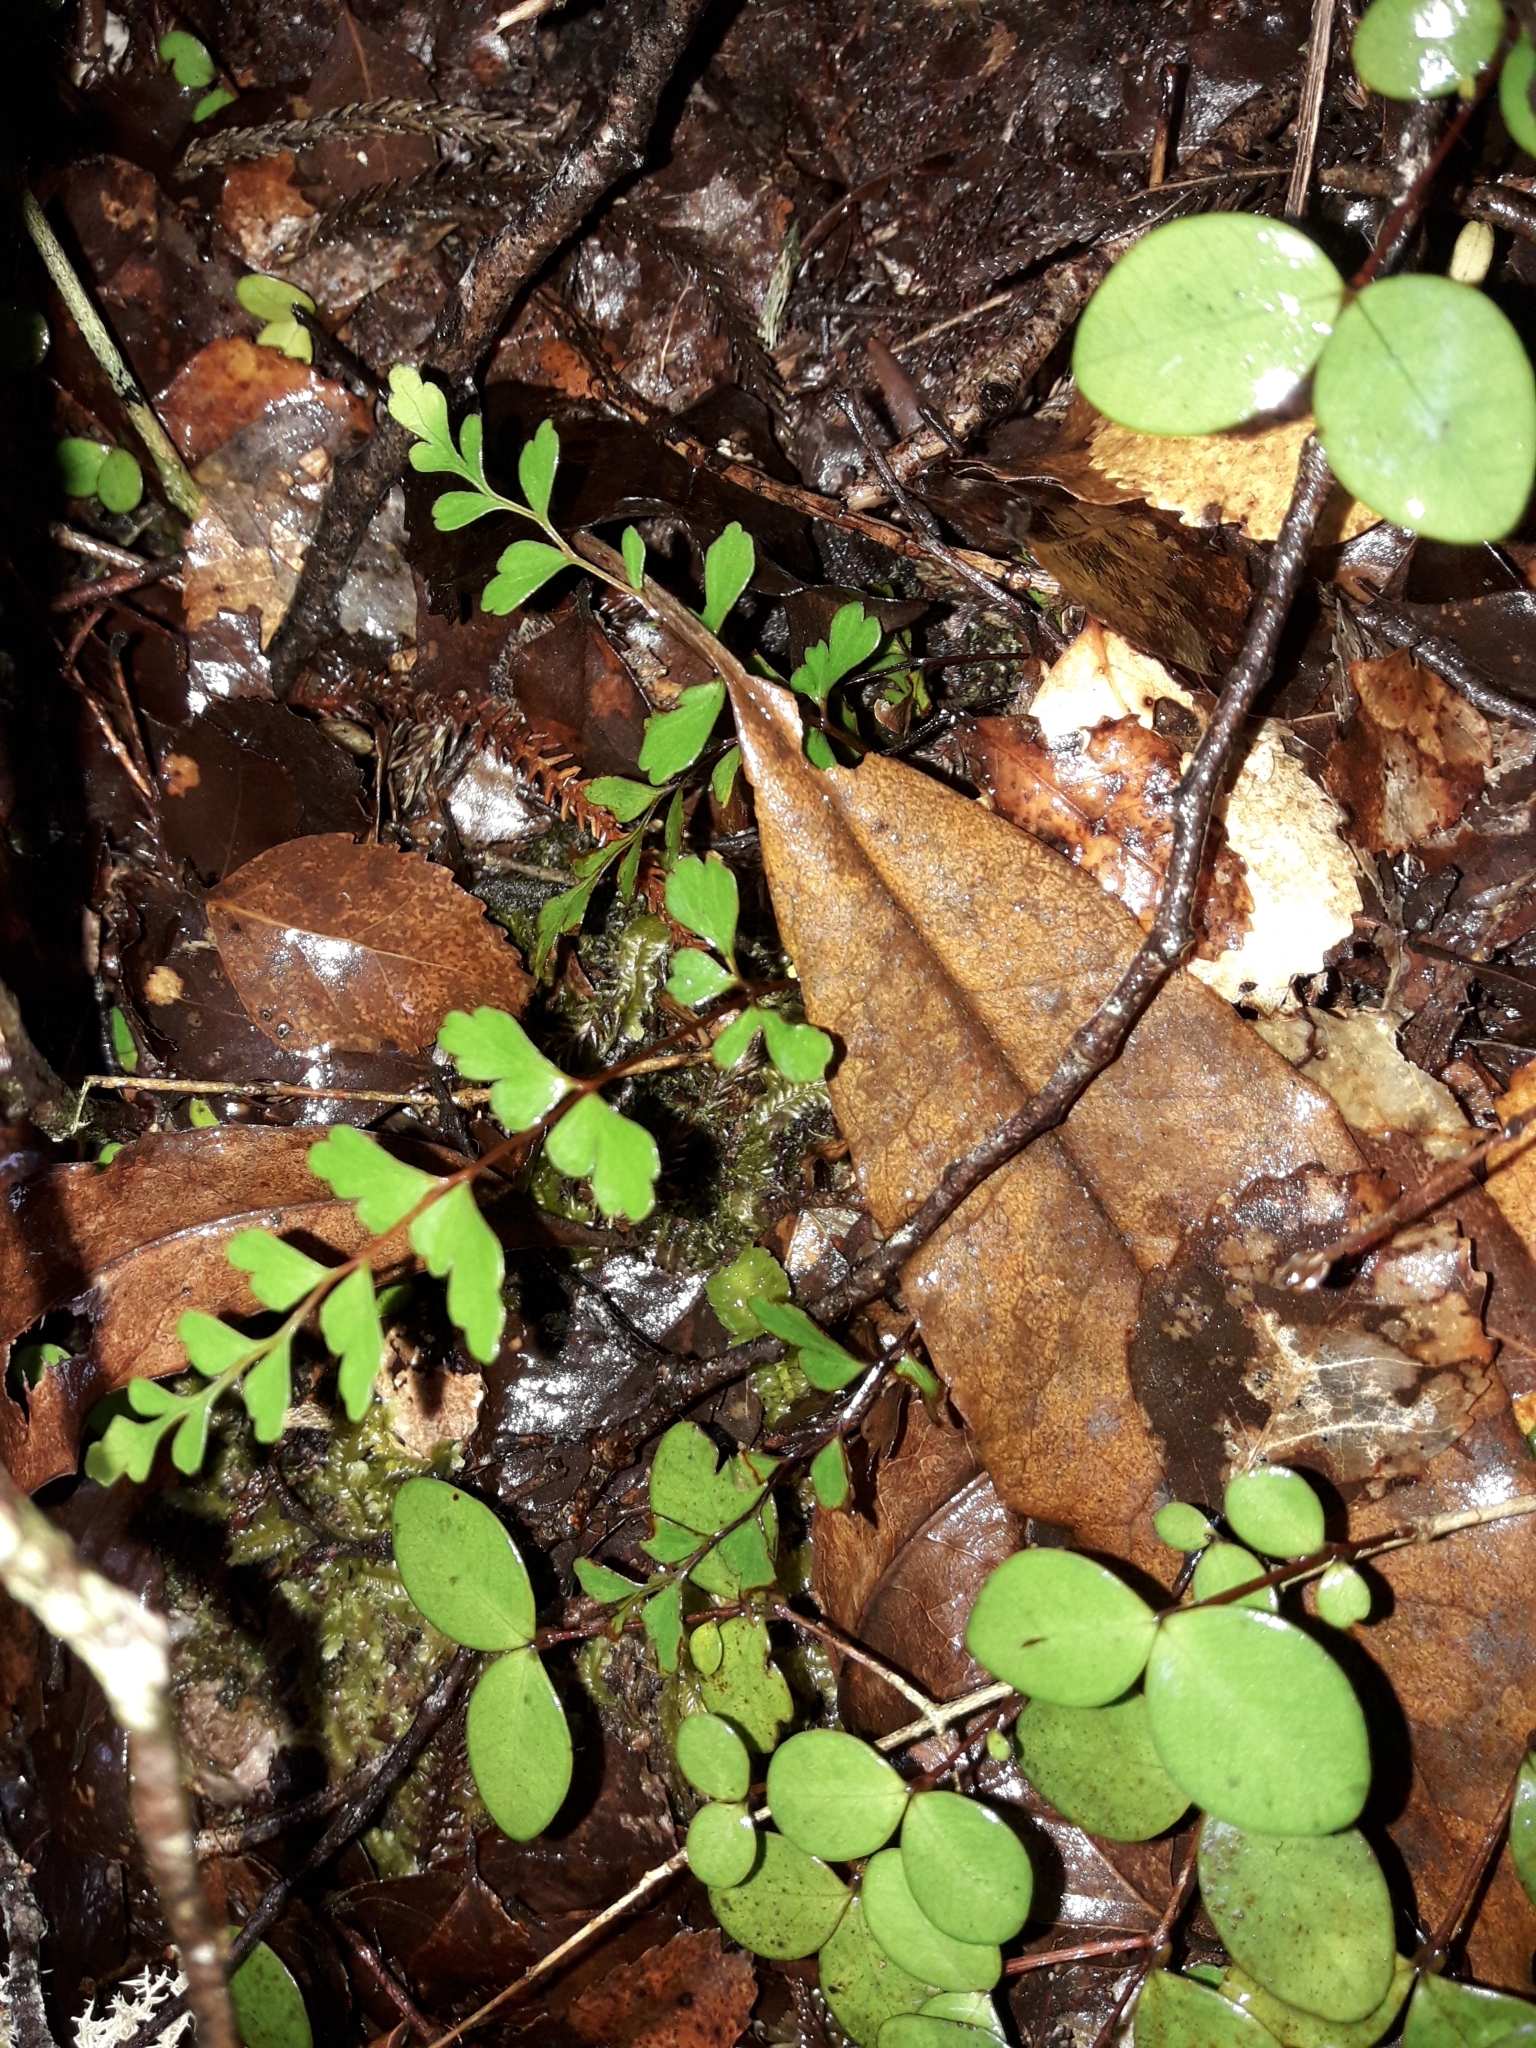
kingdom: Plantae
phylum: Tracheophyta
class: Polypodiopsida
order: Polypodiales
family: Lindsaeaceae
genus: Lindsaea
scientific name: Lindsaea trichomanoides
